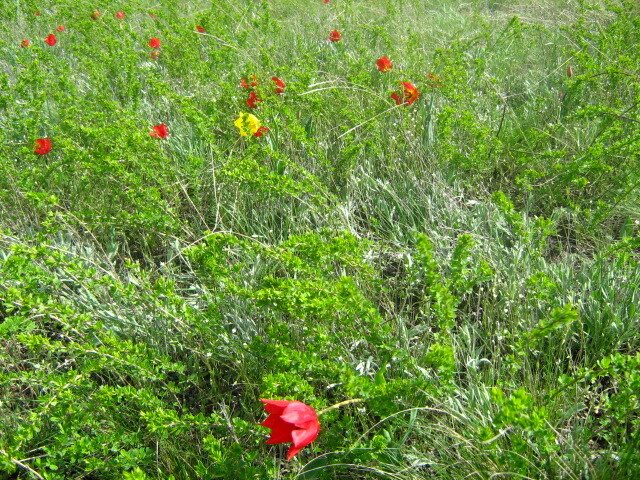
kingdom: Plantae
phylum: Tracheophyta
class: Liliopsida
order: Liliales
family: Liliaceae
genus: Tulipa
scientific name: Tulipa suaveolens
